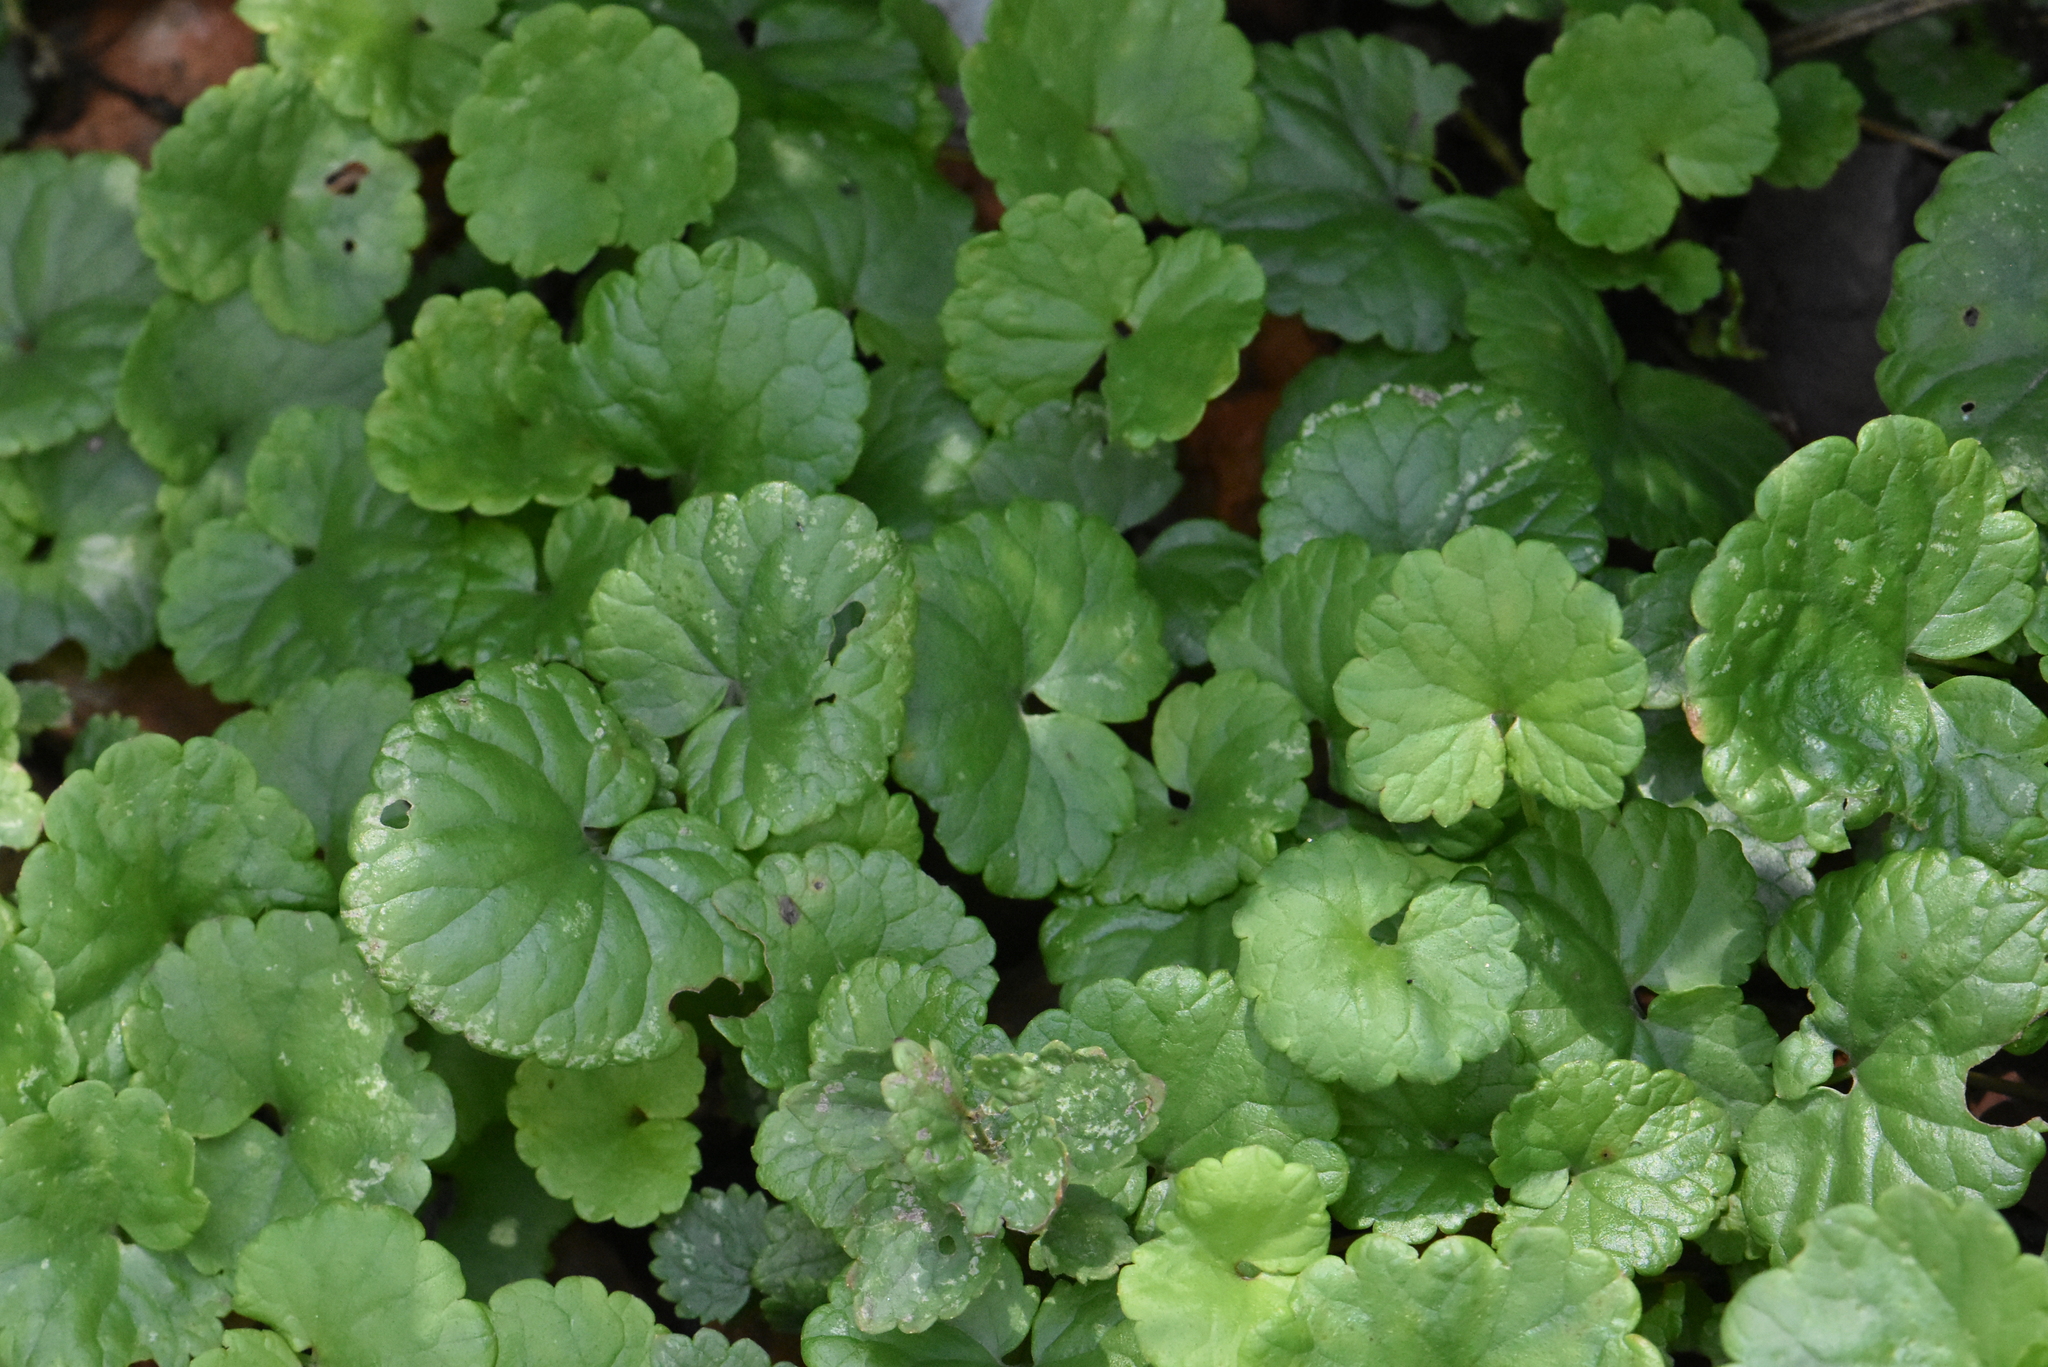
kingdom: Plantae
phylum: Tracheophyta
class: Magnoliopsida
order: Lamiales
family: Lamiaceae
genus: Glechoma
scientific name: Glechoma hederacea
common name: Ground ivy
